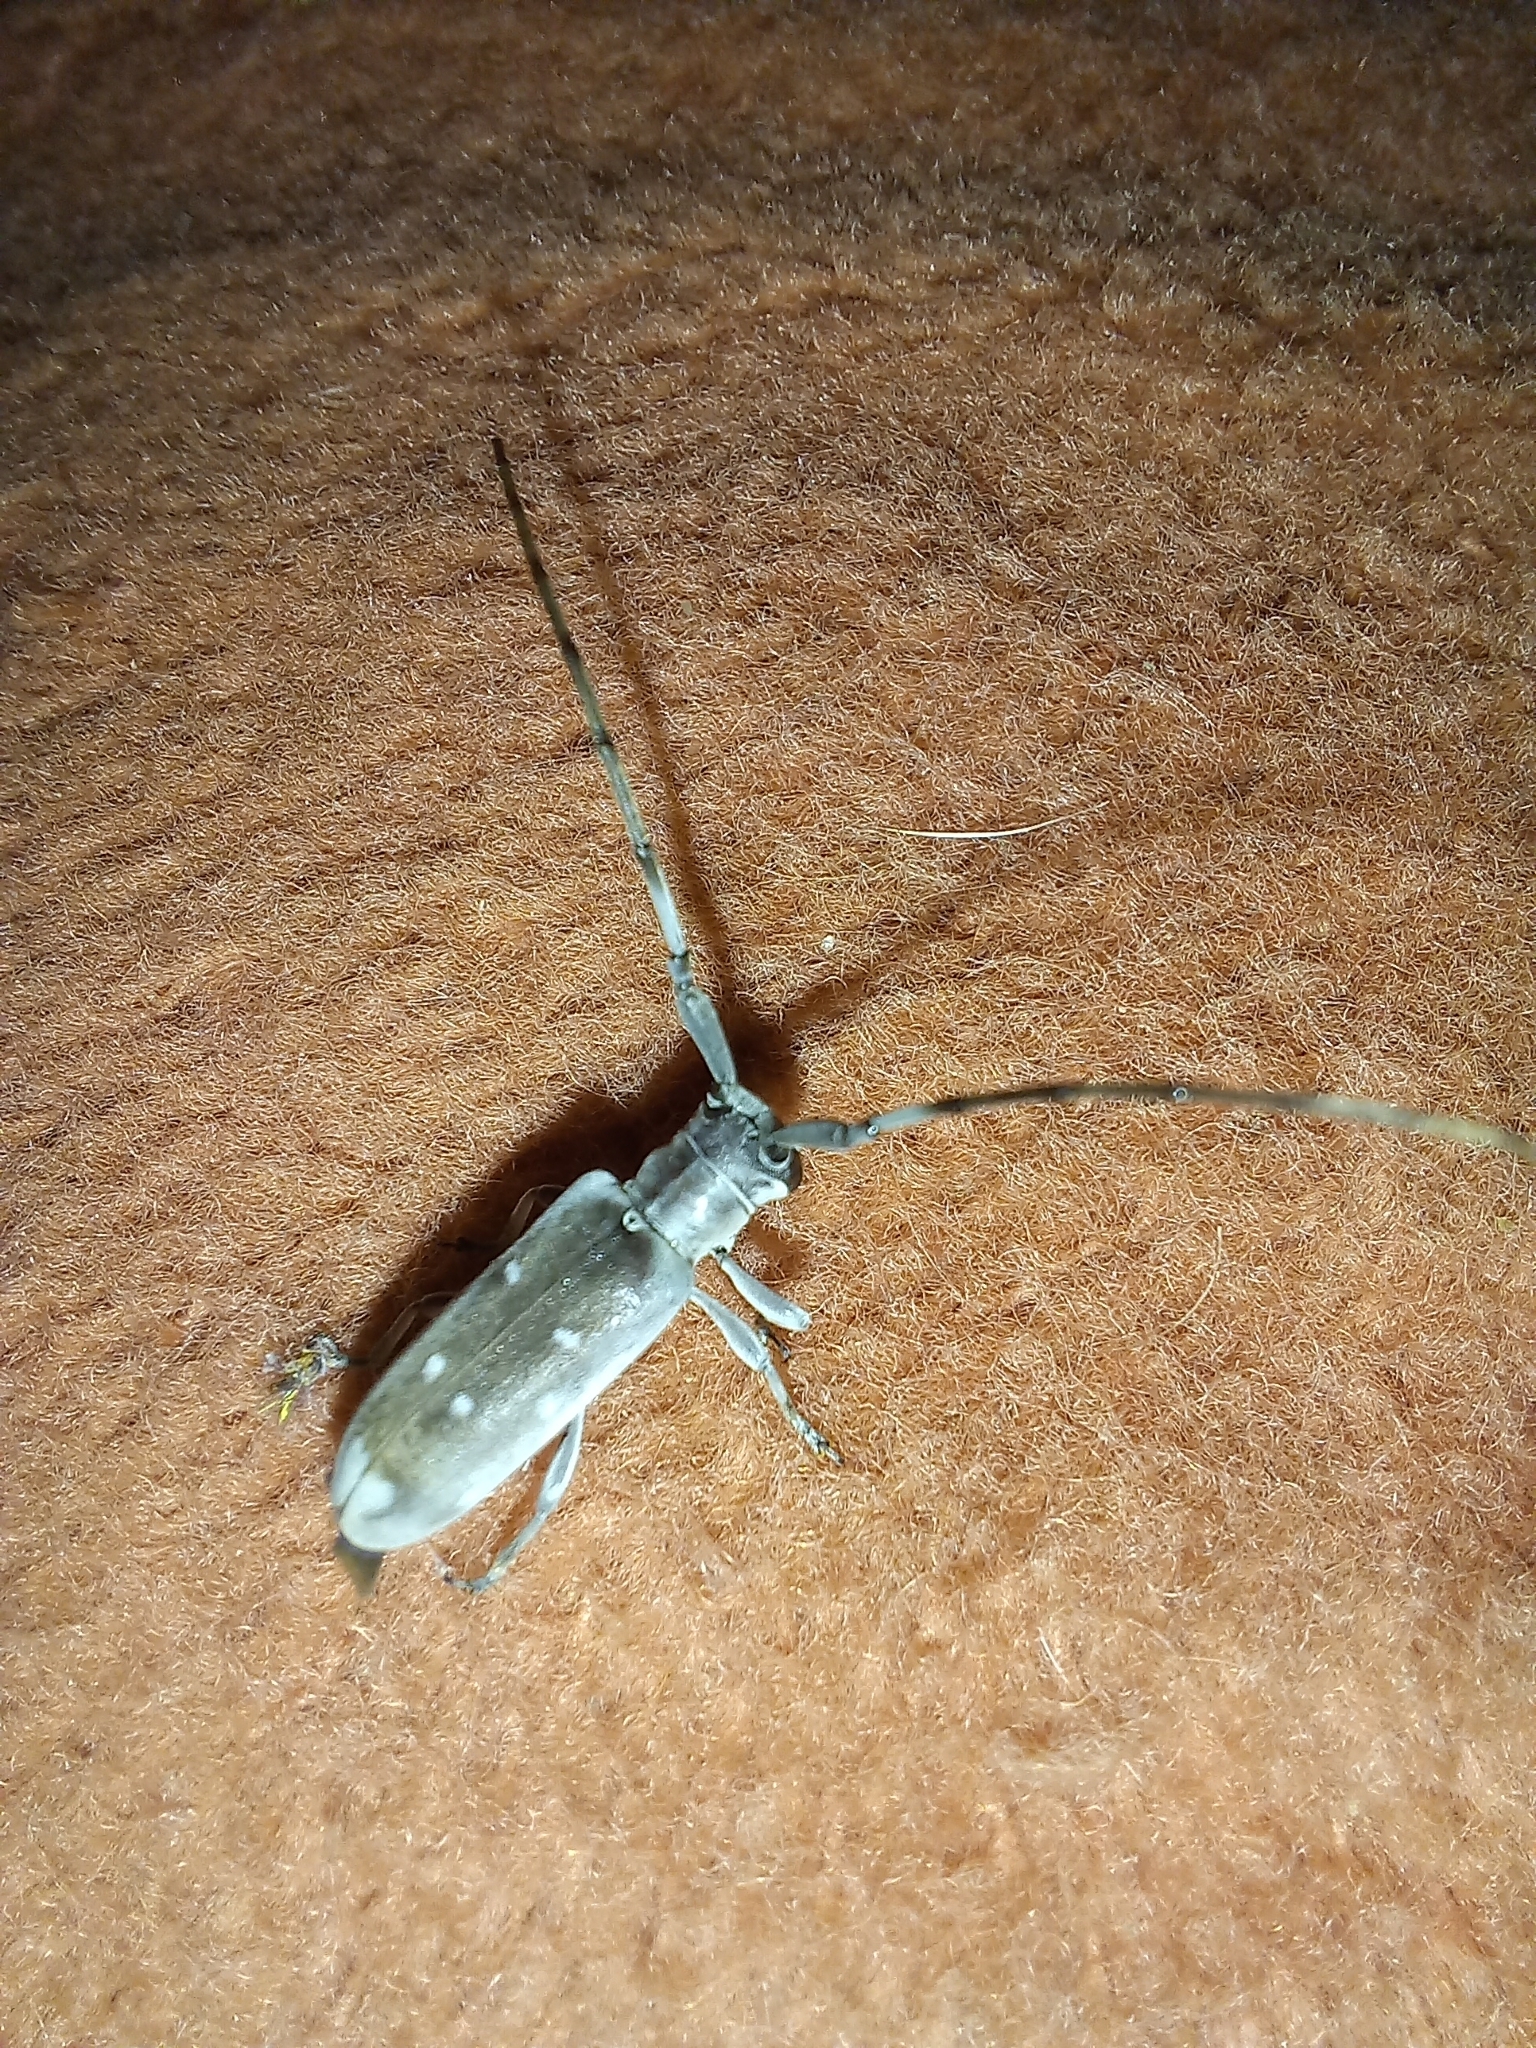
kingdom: Animalia
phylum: Arthropoda
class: Insecta
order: Coleoptera
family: Cerambycidae
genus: Eunidia
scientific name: Eunidia thomseni
